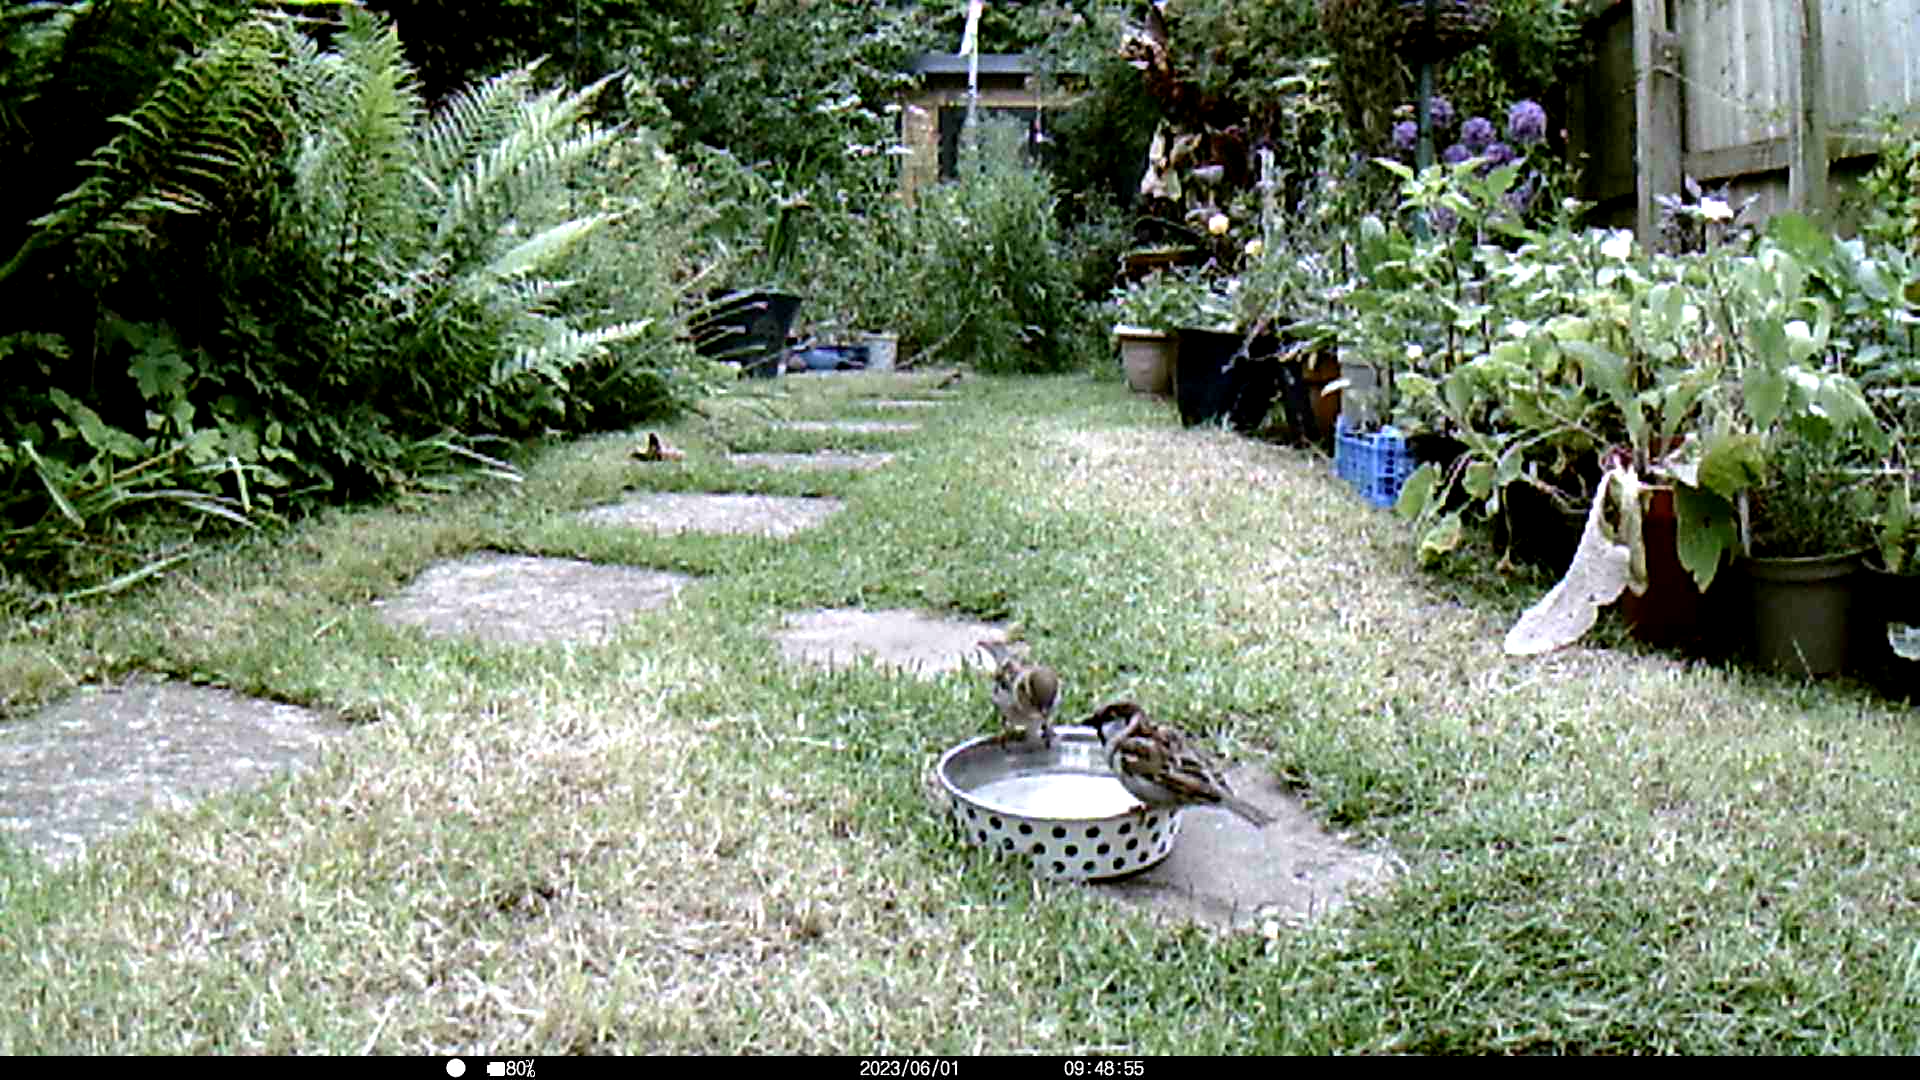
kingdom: Animalia
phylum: Chordata
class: Aves
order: Passeriformes
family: Passeridae
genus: Passer
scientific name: Passer domesticus
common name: House sparrow
